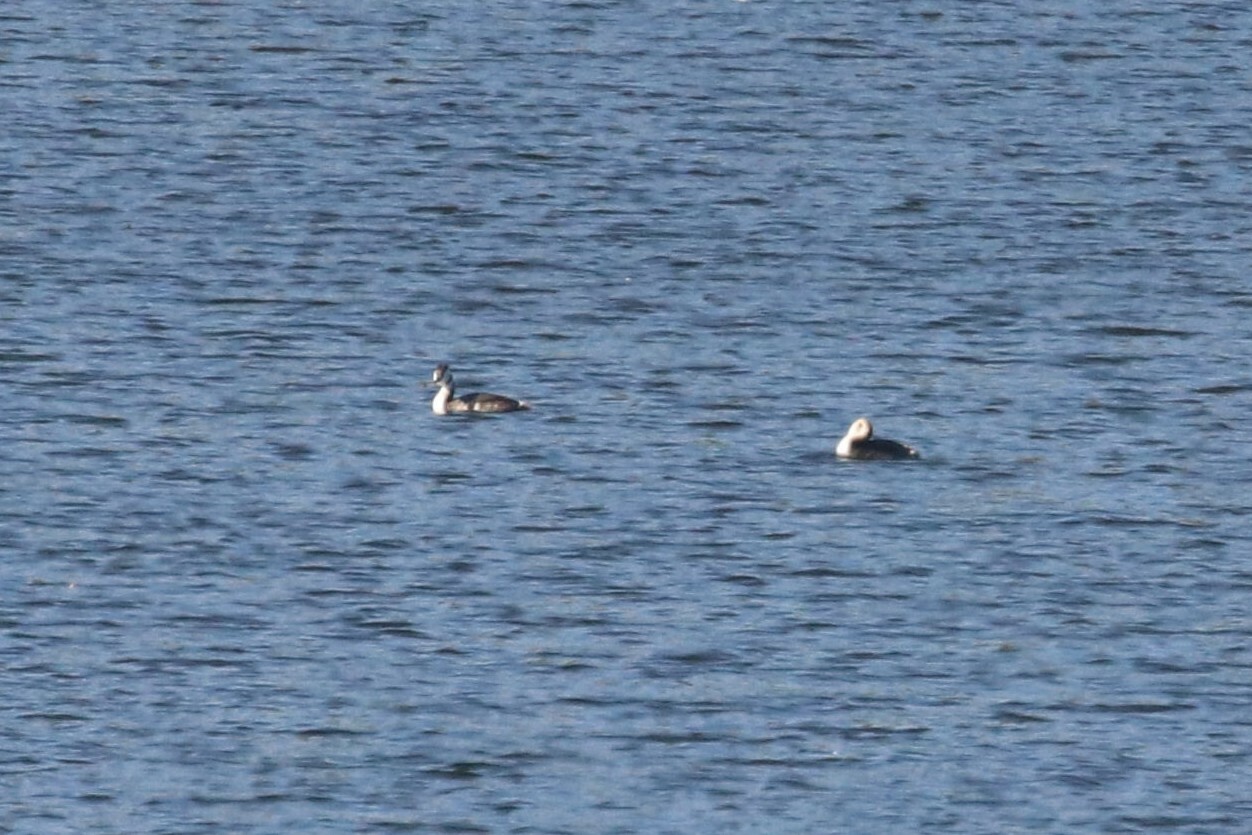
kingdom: Animalia
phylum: Chordata
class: Aves
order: Podicipediformes
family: Podicipedidae
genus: Podiceps
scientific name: Podiceps cristatus
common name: Great crested grebe
